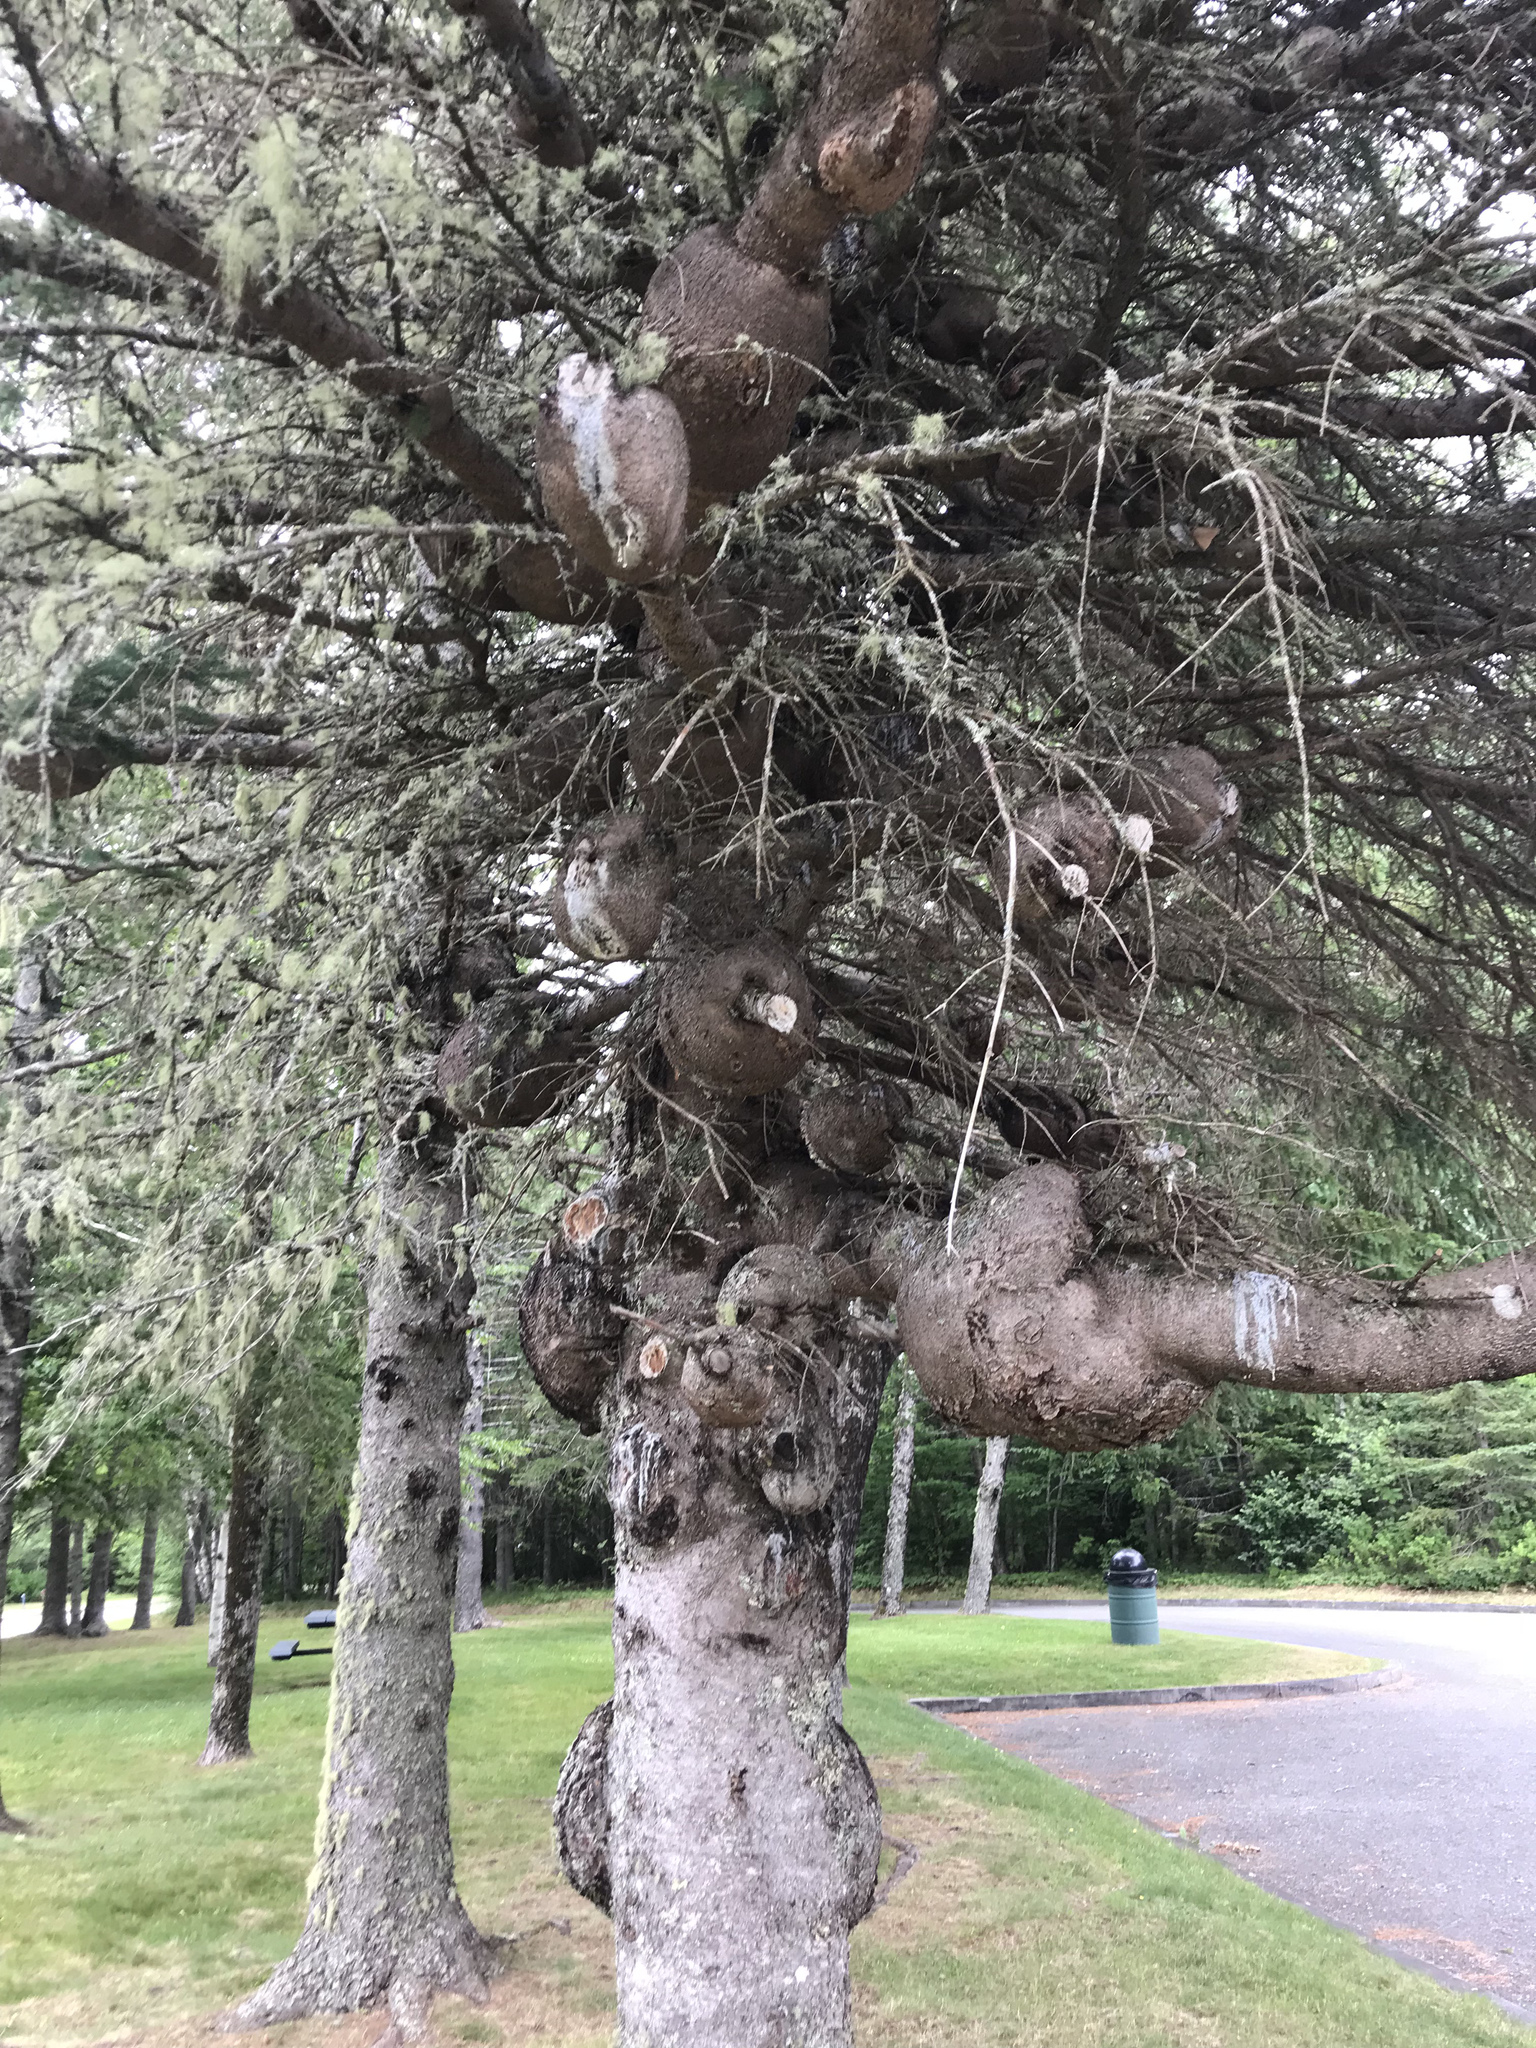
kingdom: Plantae
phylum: Tracheophyta
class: Pinopsida
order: Pinales
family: Pinaceae
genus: Picea
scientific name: Picea glauca
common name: White spruce
